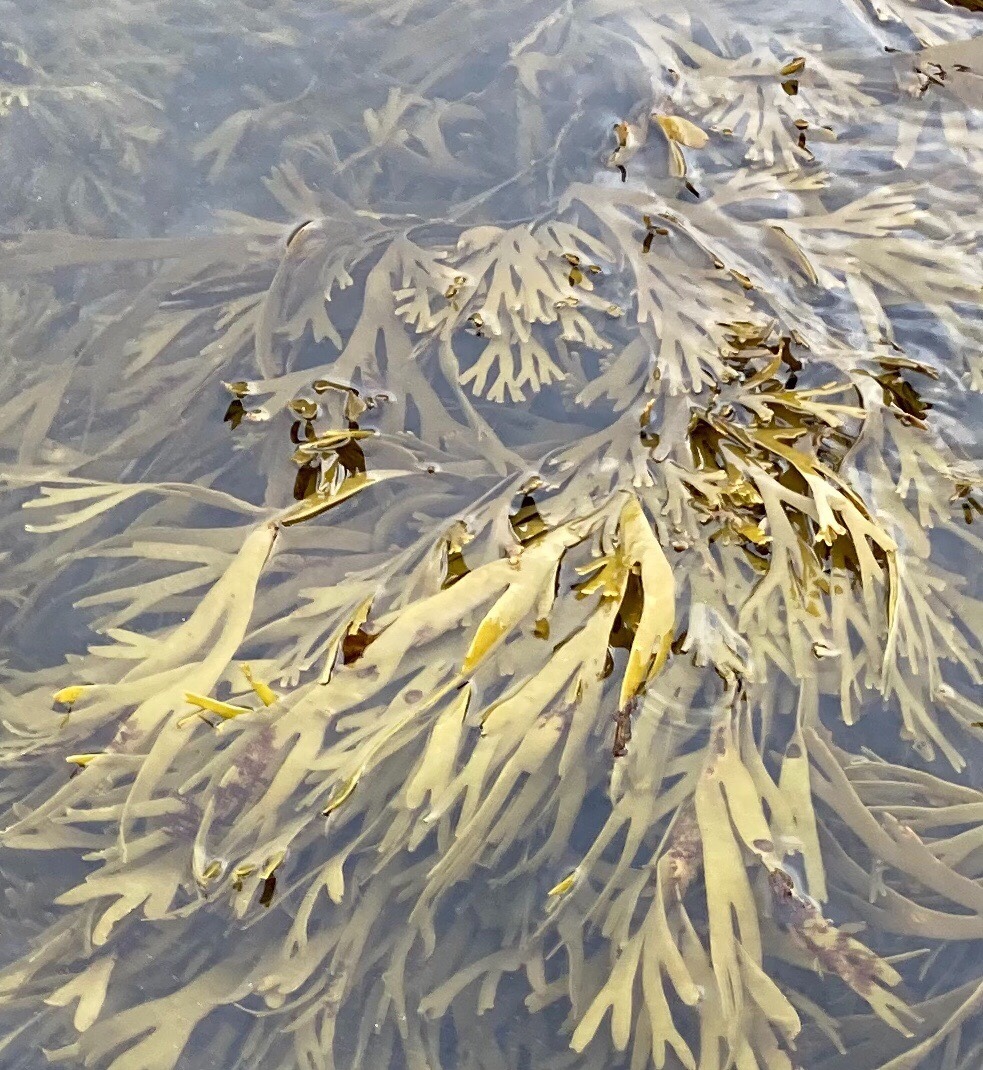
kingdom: Chromista
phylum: Ochrophyta
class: Phaeophyceae
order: Fucales
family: Xiphophoraceae
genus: Xiphophora
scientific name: Xiphophora gladiata
